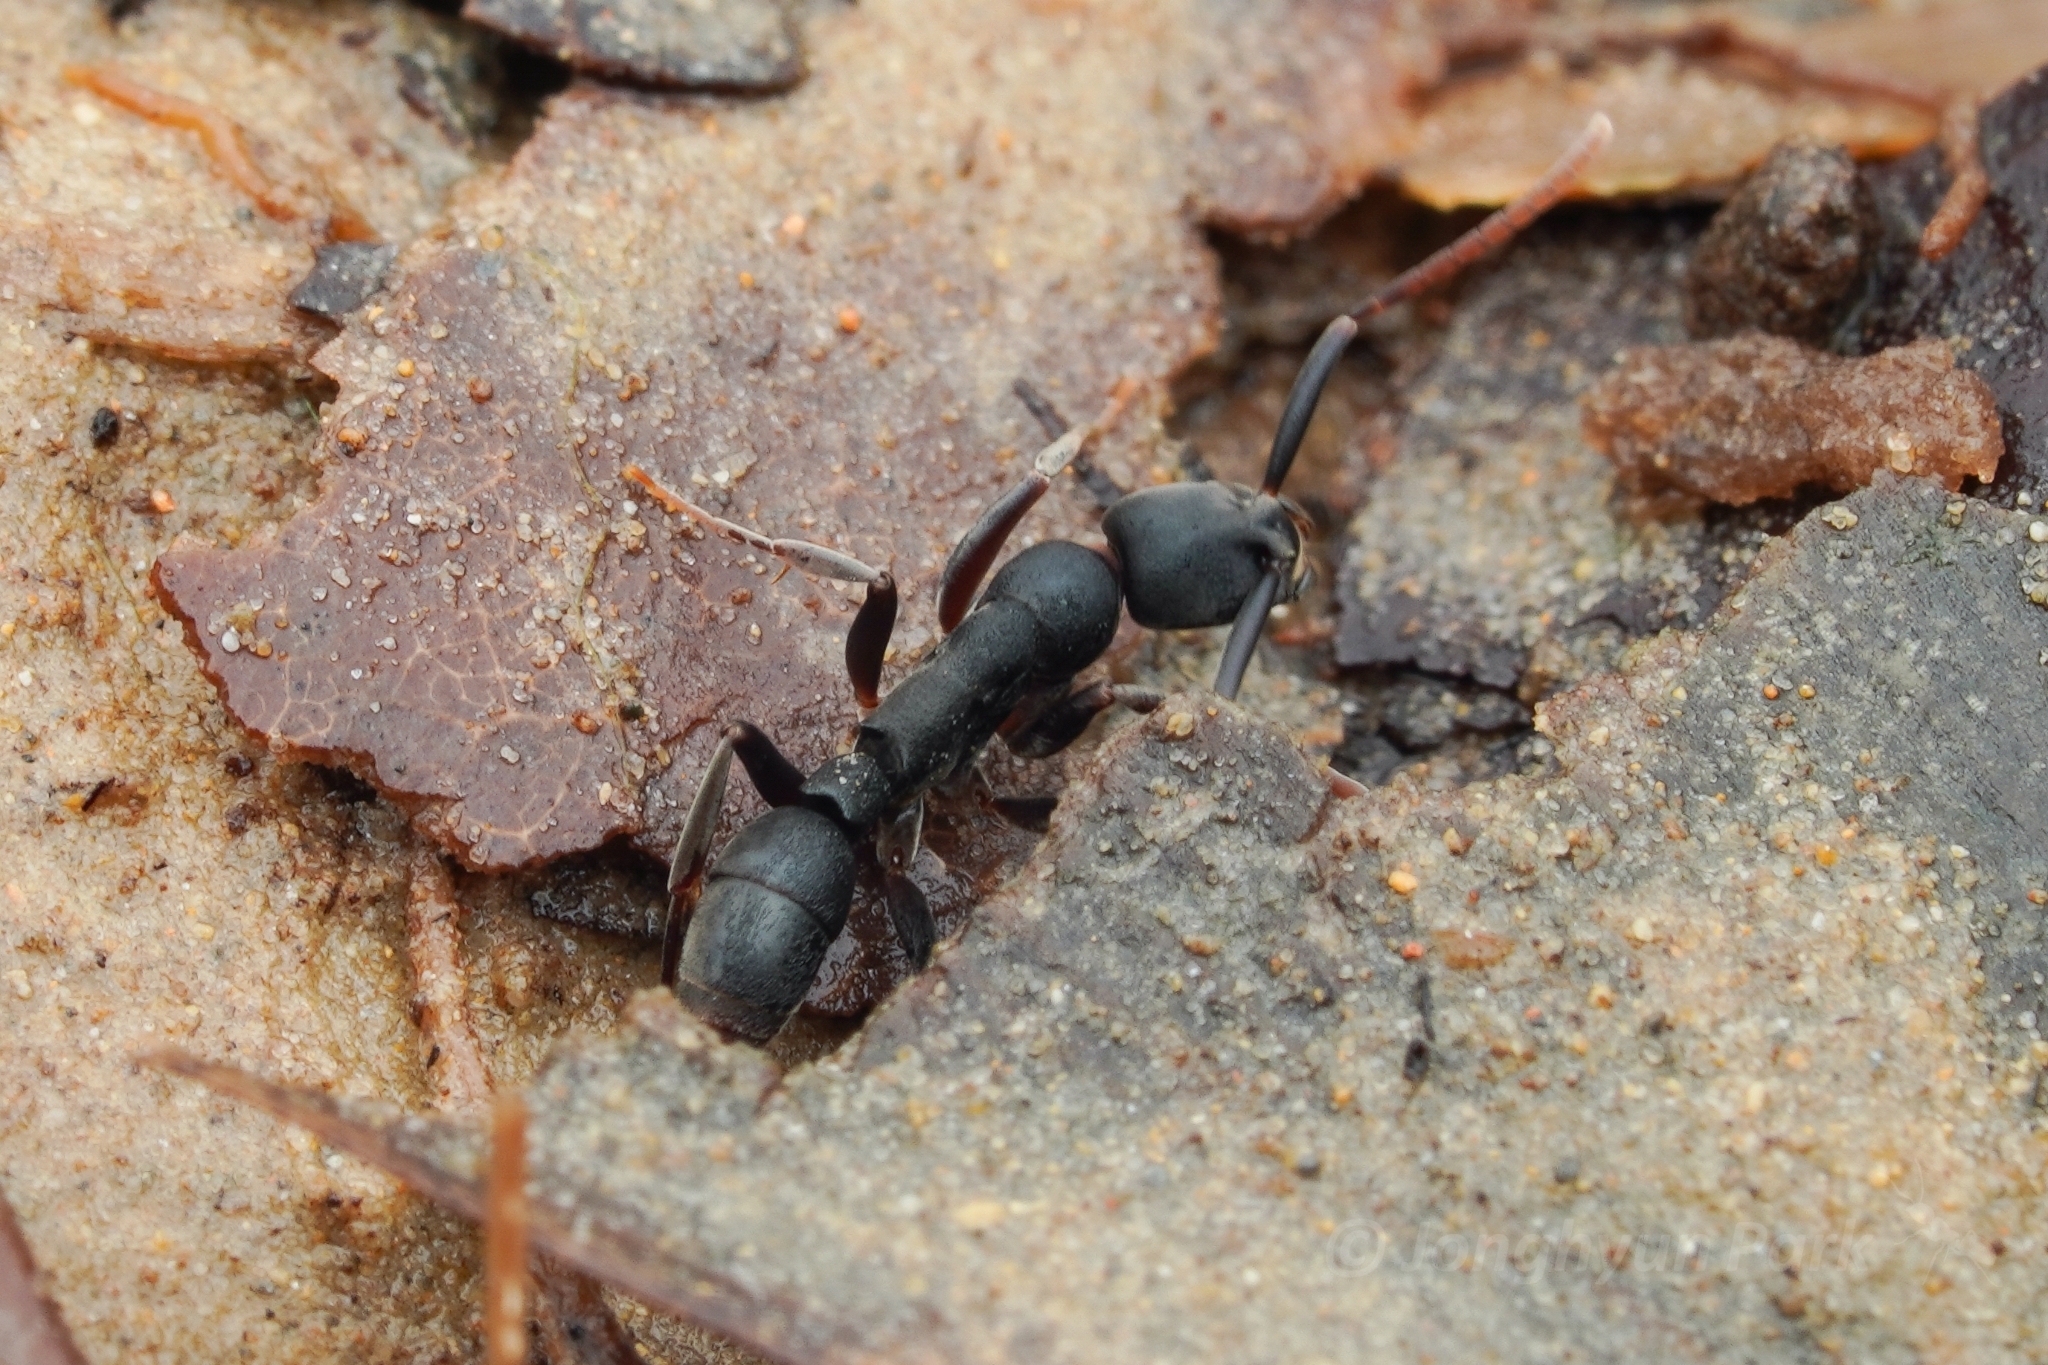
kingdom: Animalia
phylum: Arthropoda
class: Insecta
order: Hymenoptera
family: Formicidae
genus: Platythyrea
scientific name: Platythyrea quadridenta
